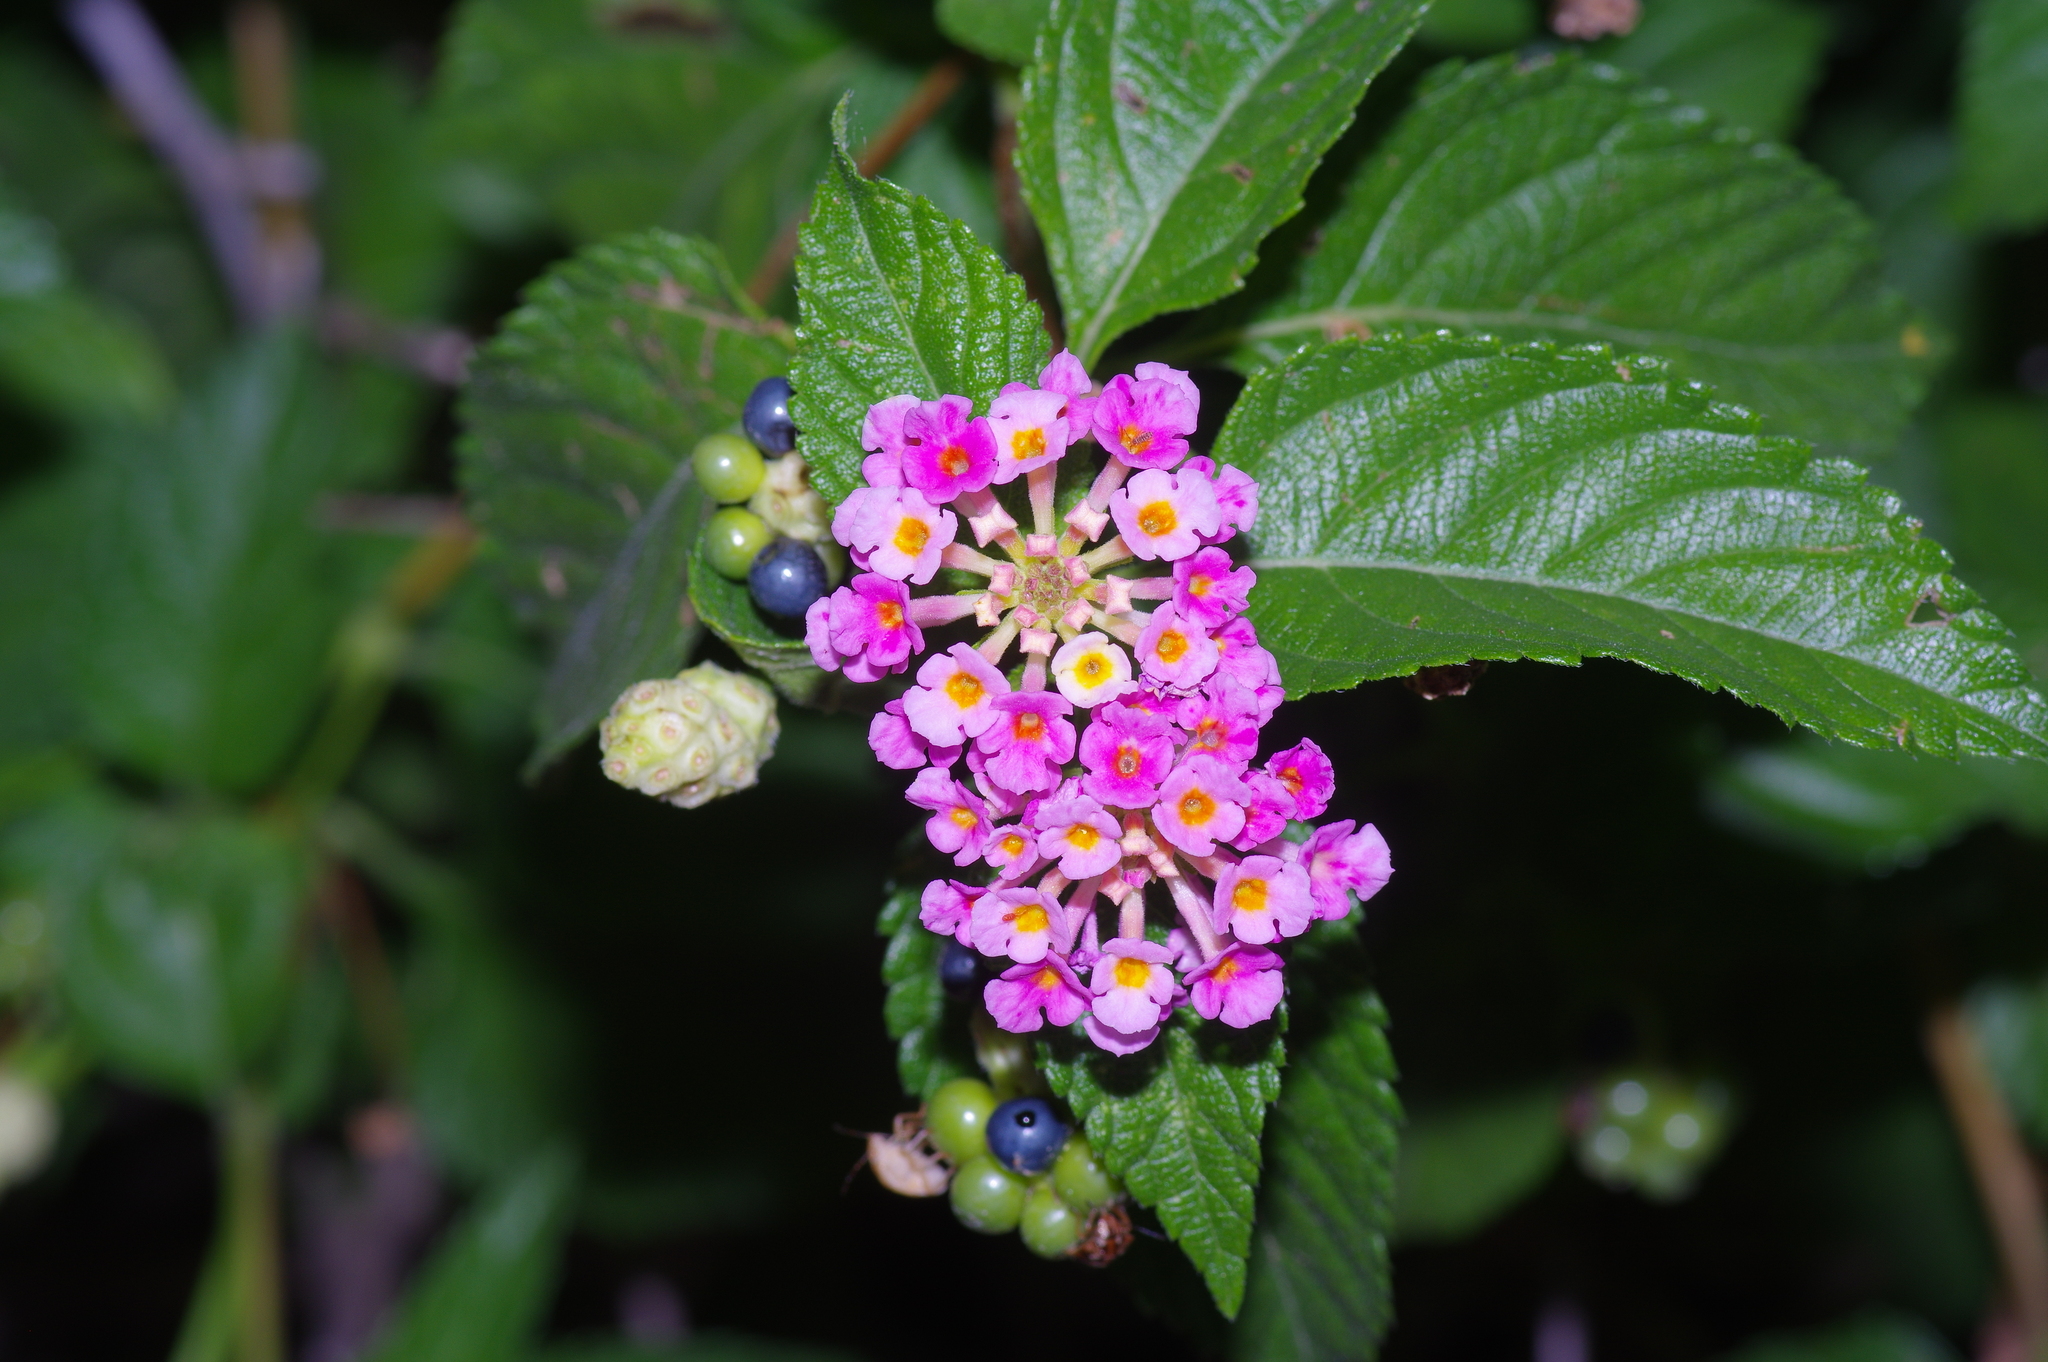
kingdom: Plantae
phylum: Tracheophyta
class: Magnoliopsida
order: Lamiales
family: Verbenaceae
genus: Lantana
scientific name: Lantana strigocamara
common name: Lantana
